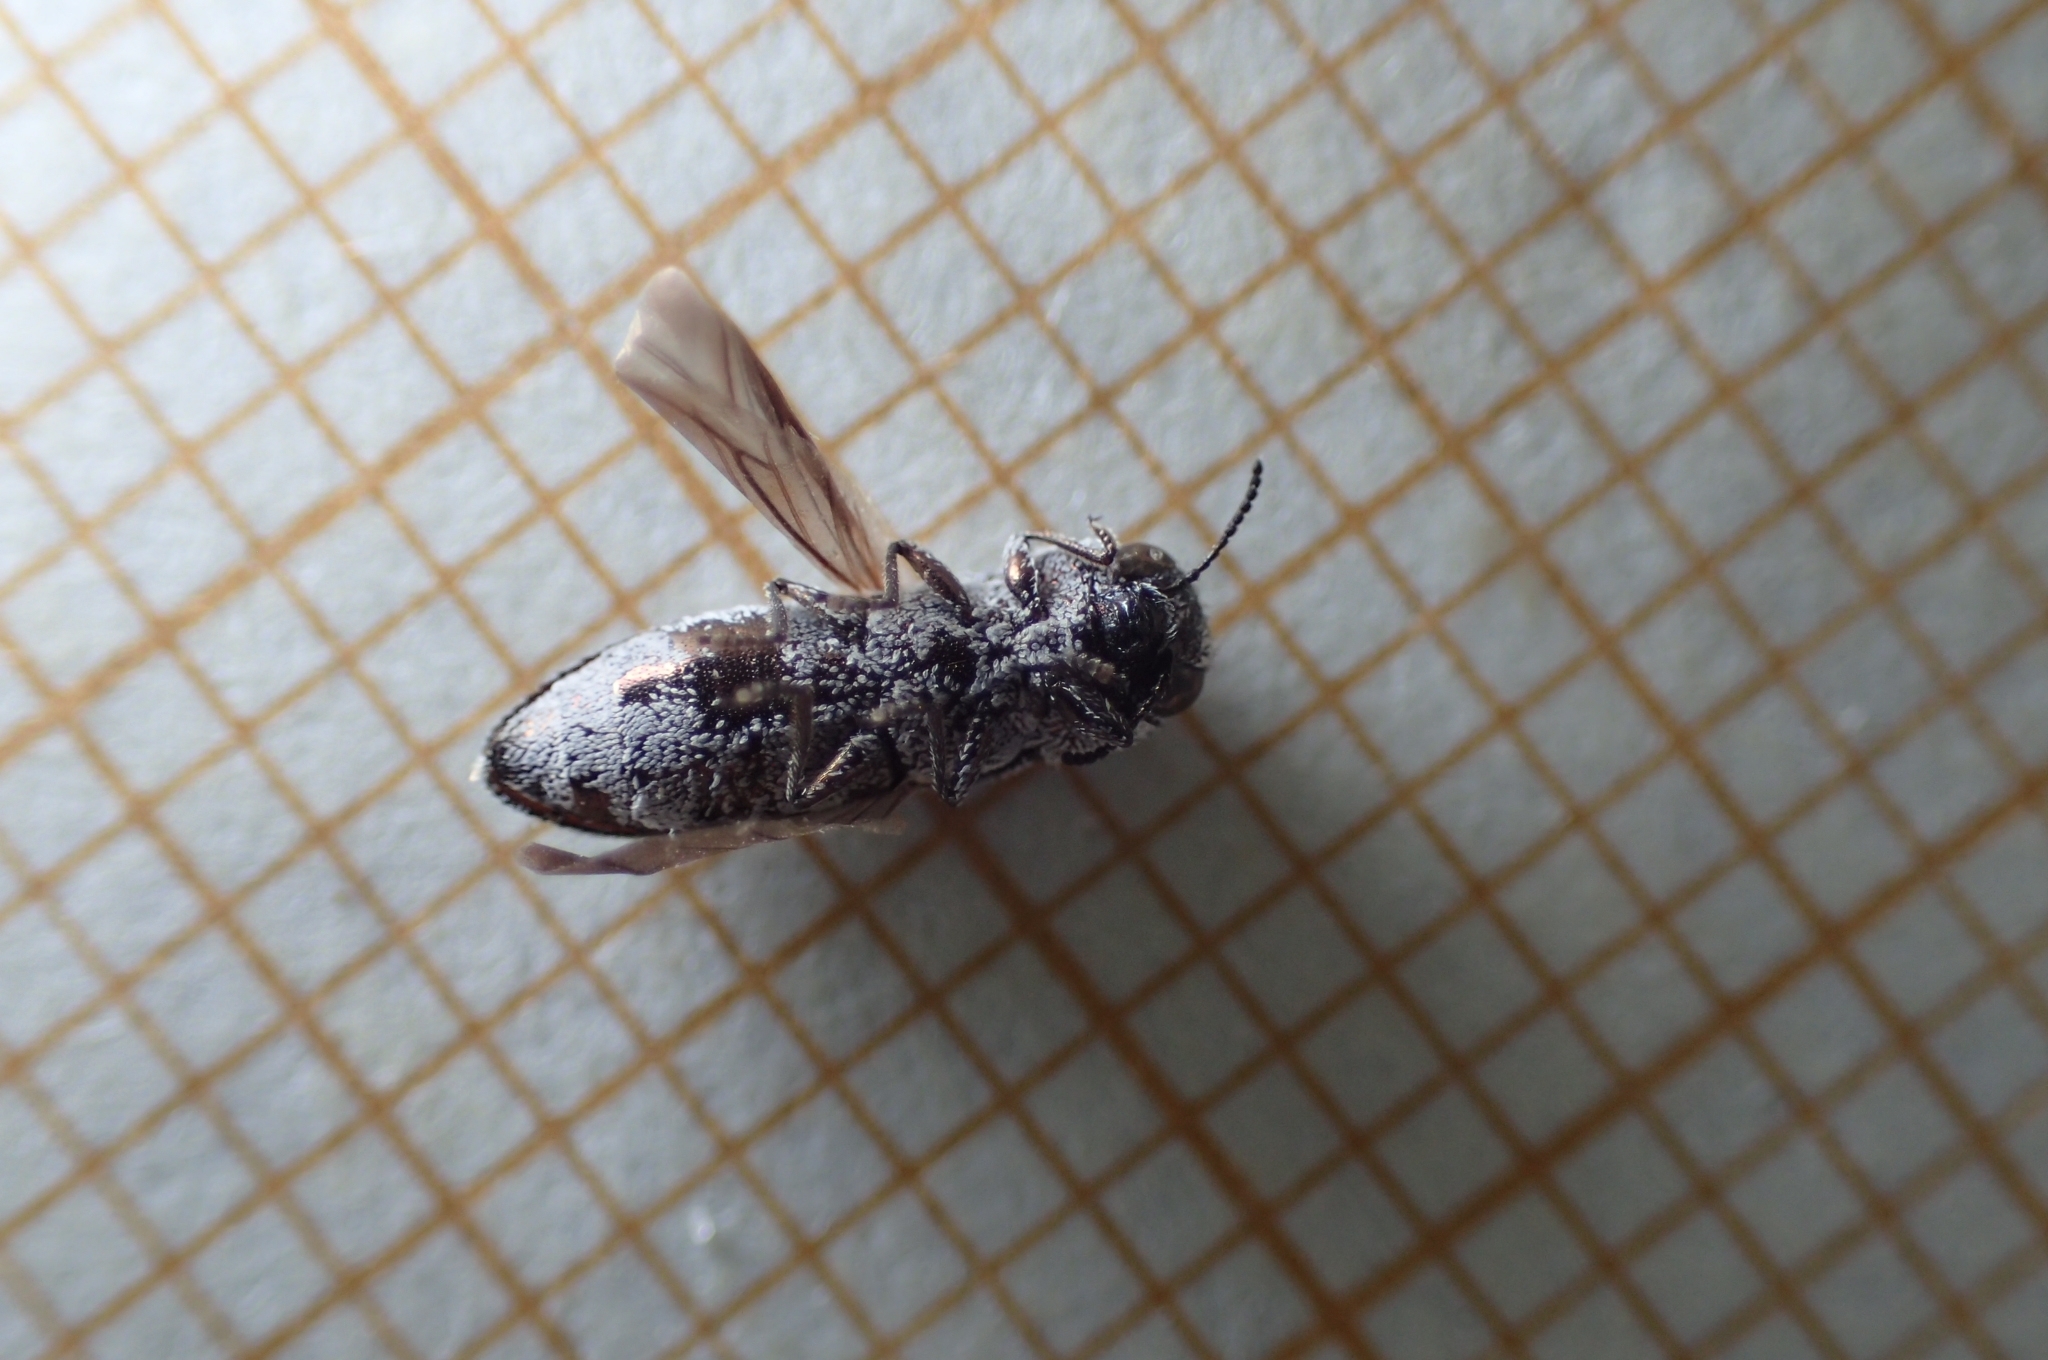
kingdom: Animalia
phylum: Arthropoda
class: Insecta
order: Coleoptera
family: Buprestidae
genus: Acmaeoderella
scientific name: Acmaeoderella adspersula
